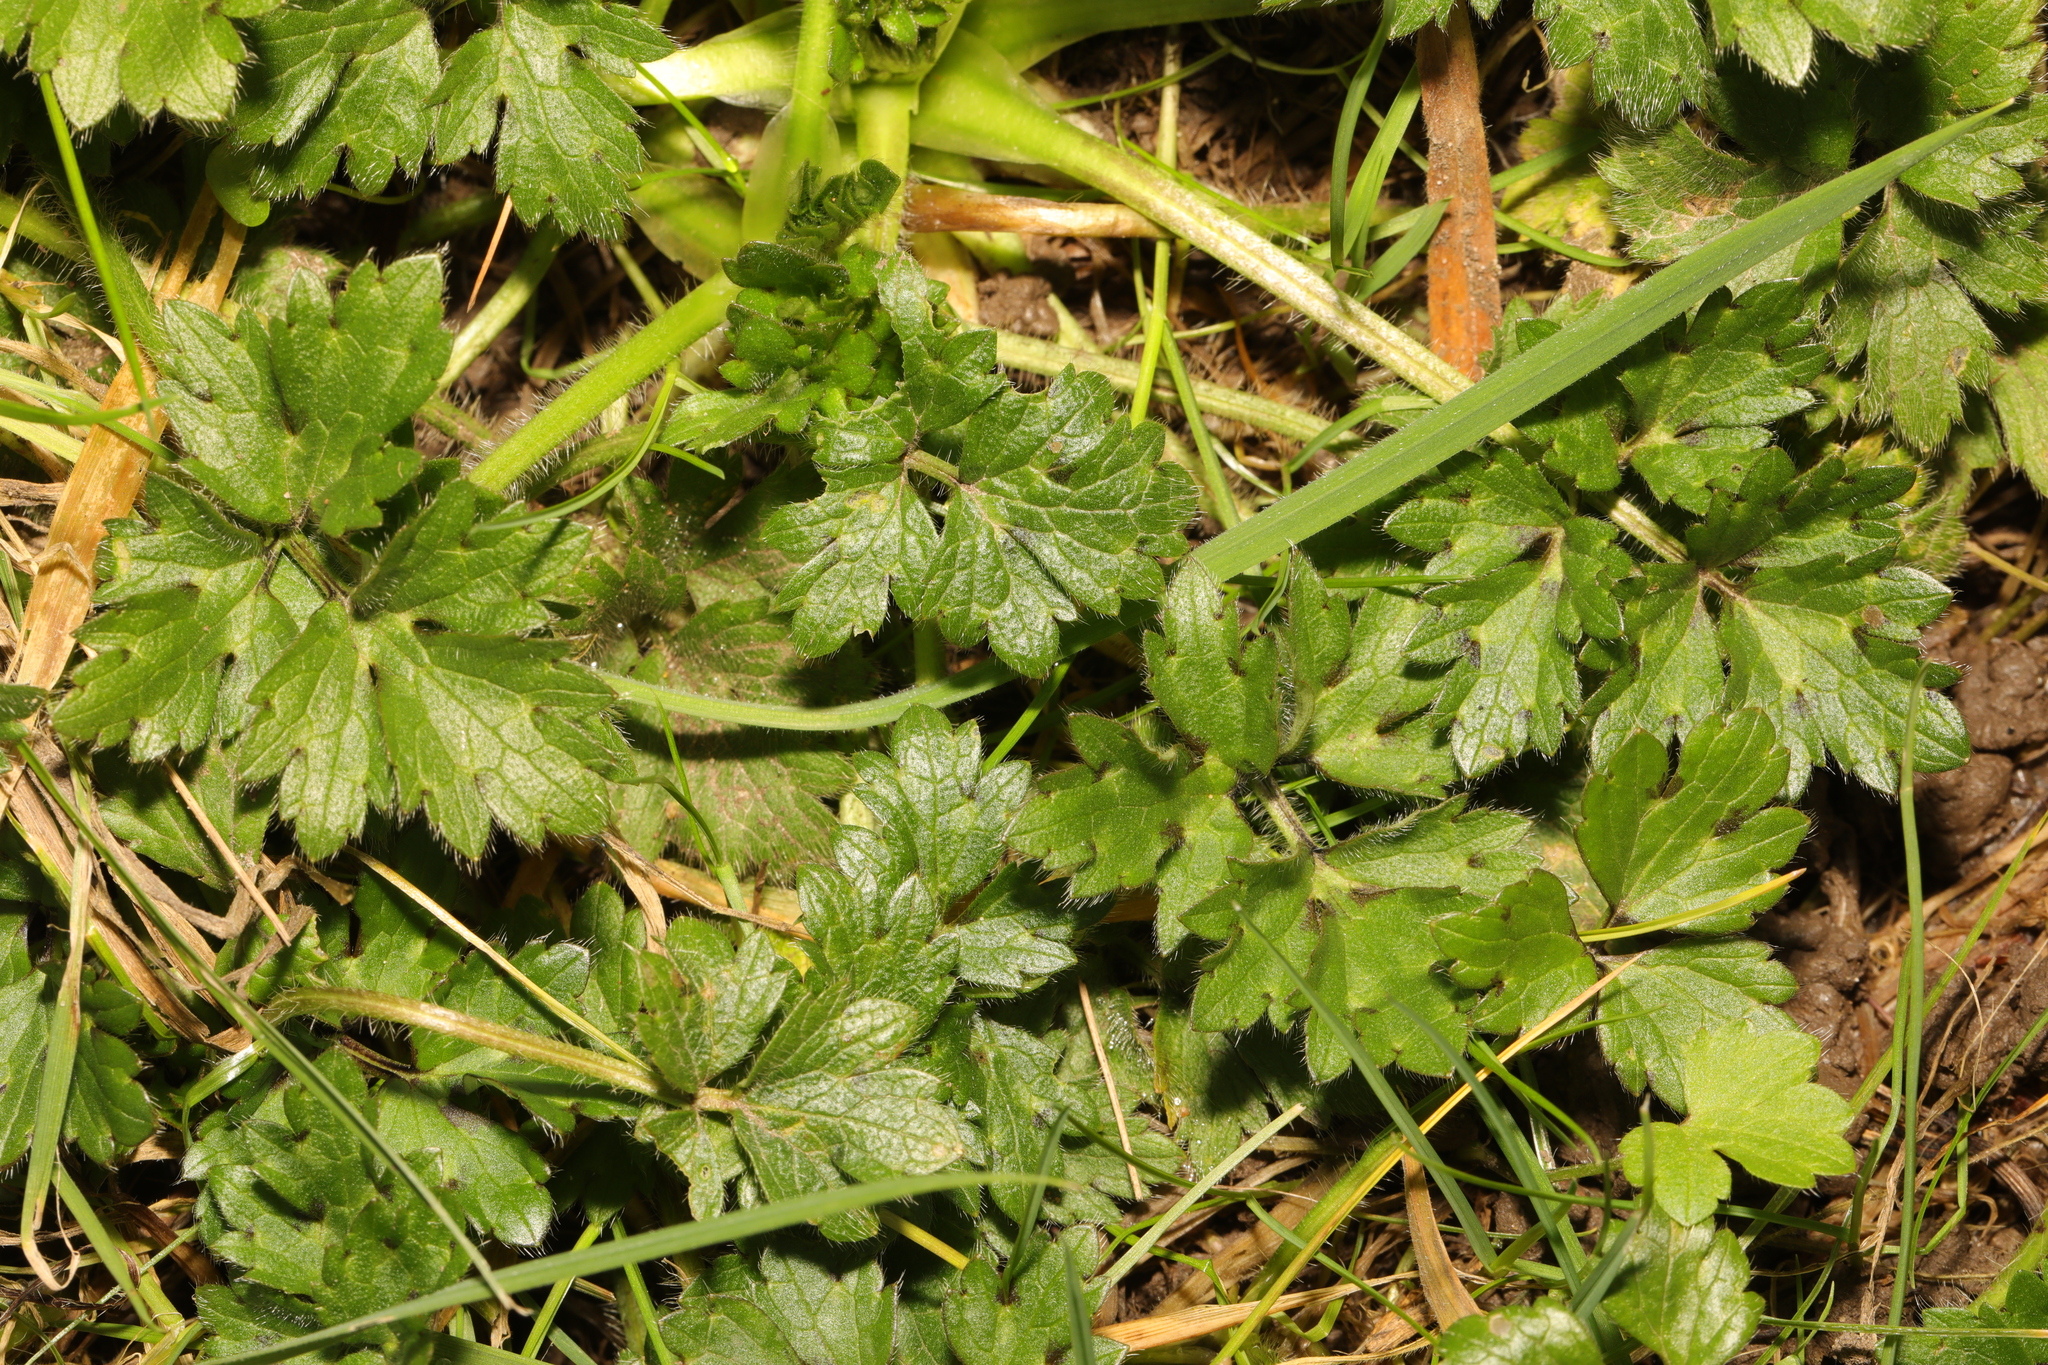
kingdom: Plantae
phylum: Tracheophyta
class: Magnoliopsida
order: Ranunculales
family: Ranunculaceae
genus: Ranunculus
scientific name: Ranunculus repens
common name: Creeping buttercup
